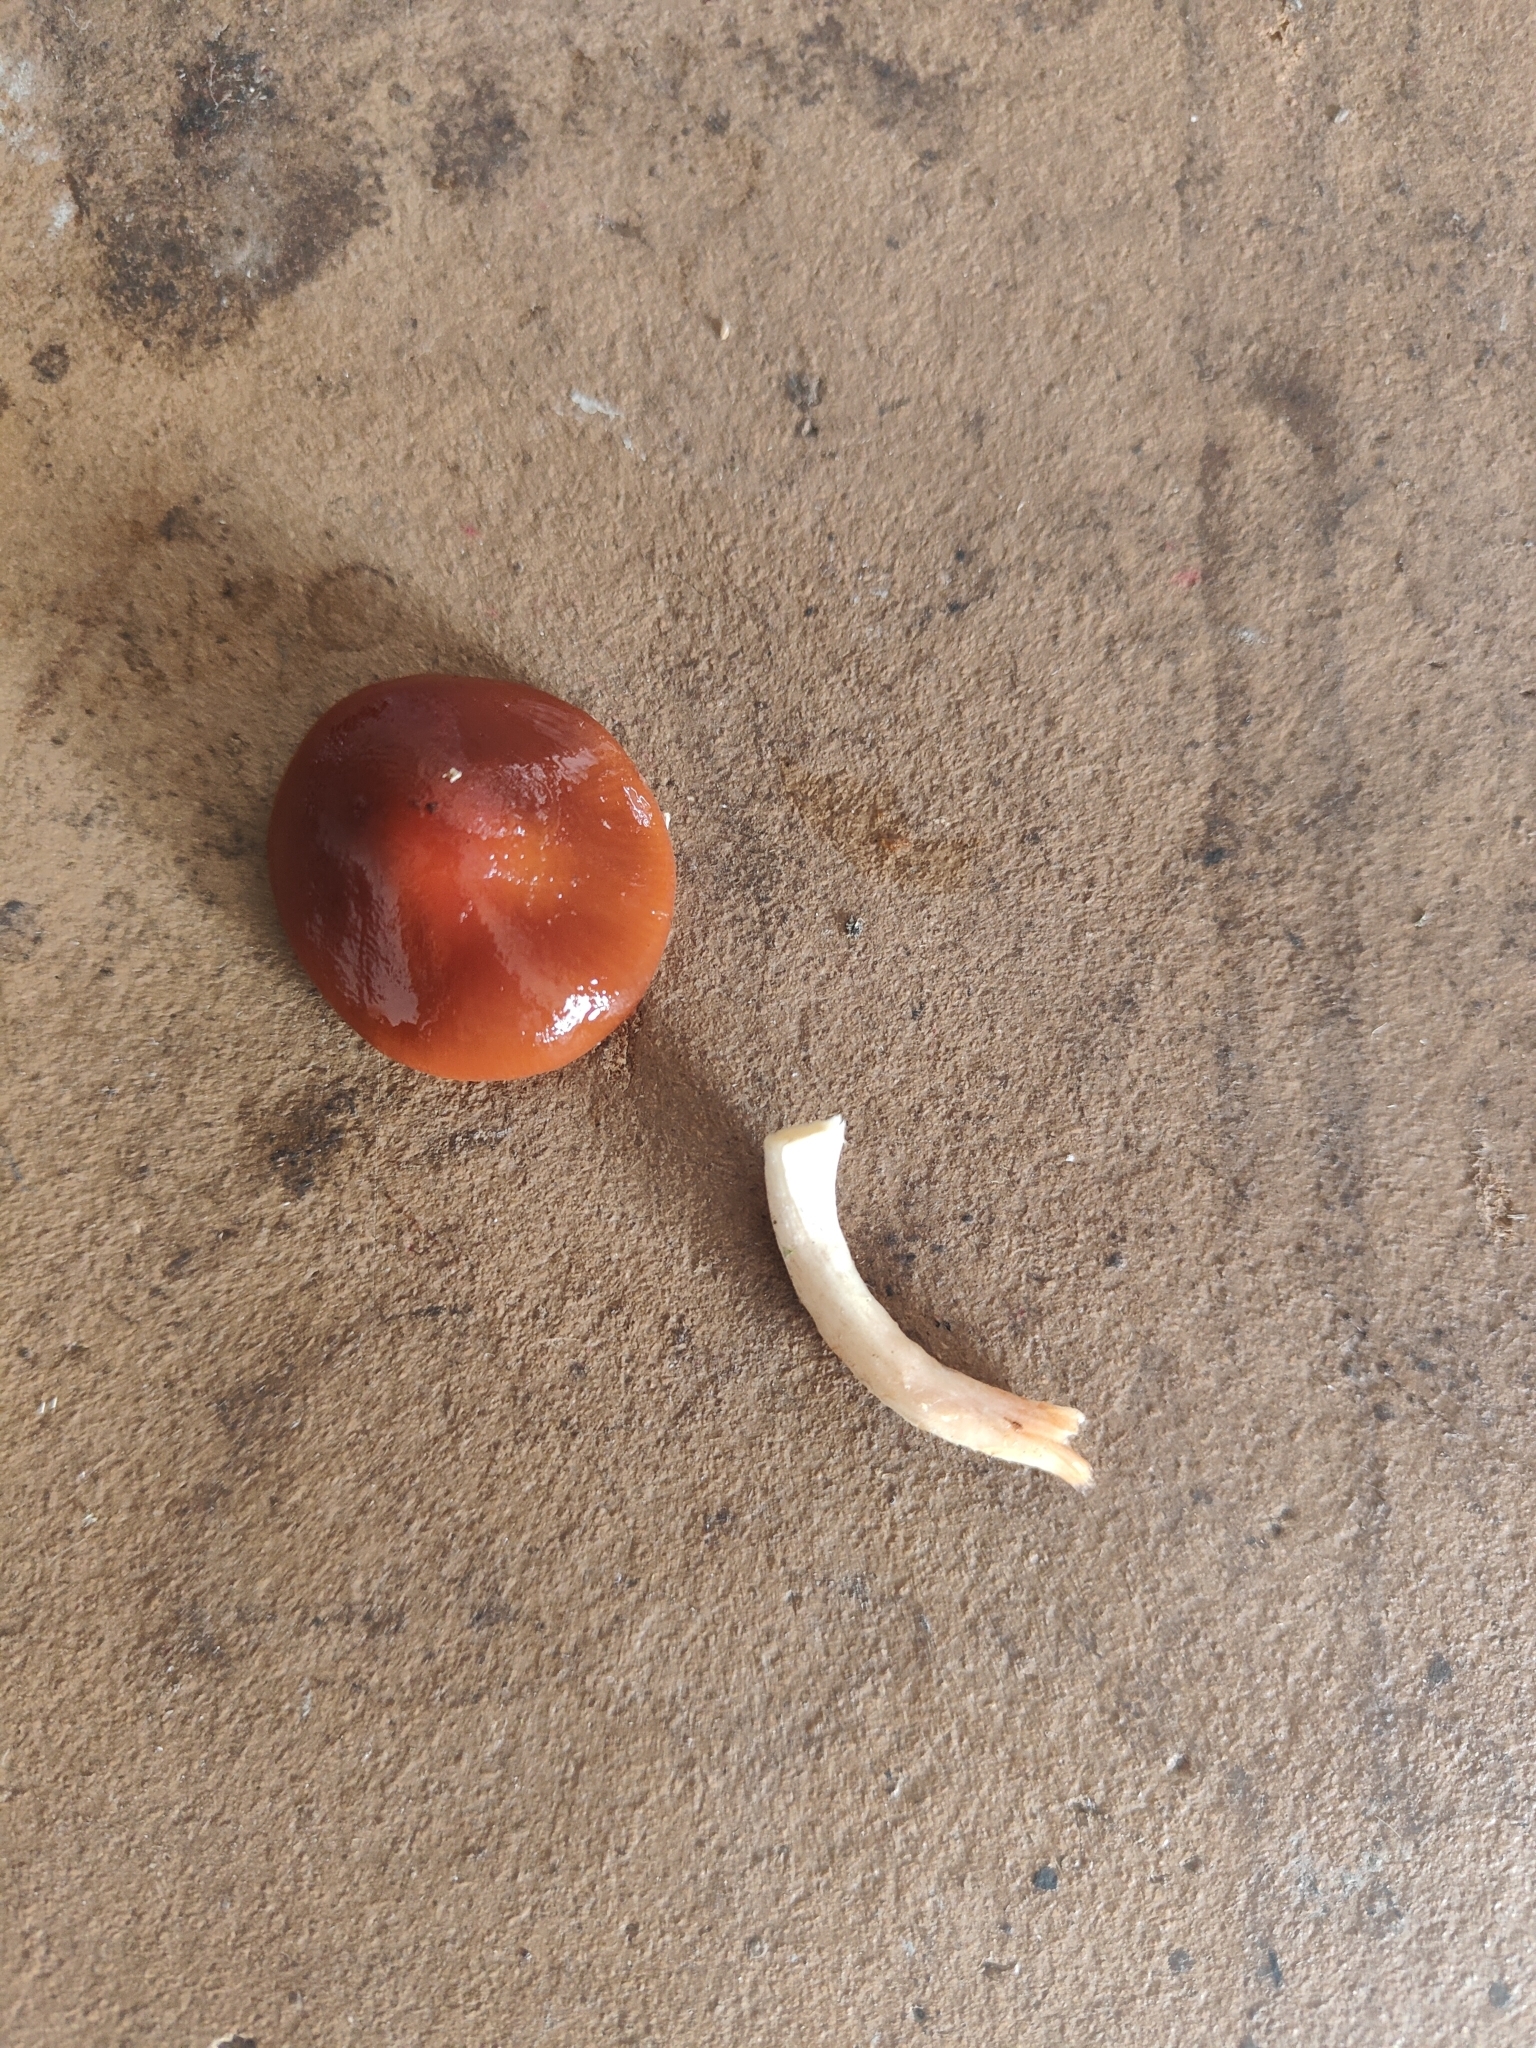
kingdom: Fungi
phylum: Basidiomycota
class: Agaricomycetes
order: Agaricales
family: Strophariaceae
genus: Leratiomyces
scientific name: Leratiomyces ceres
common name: Redlead roundhead
